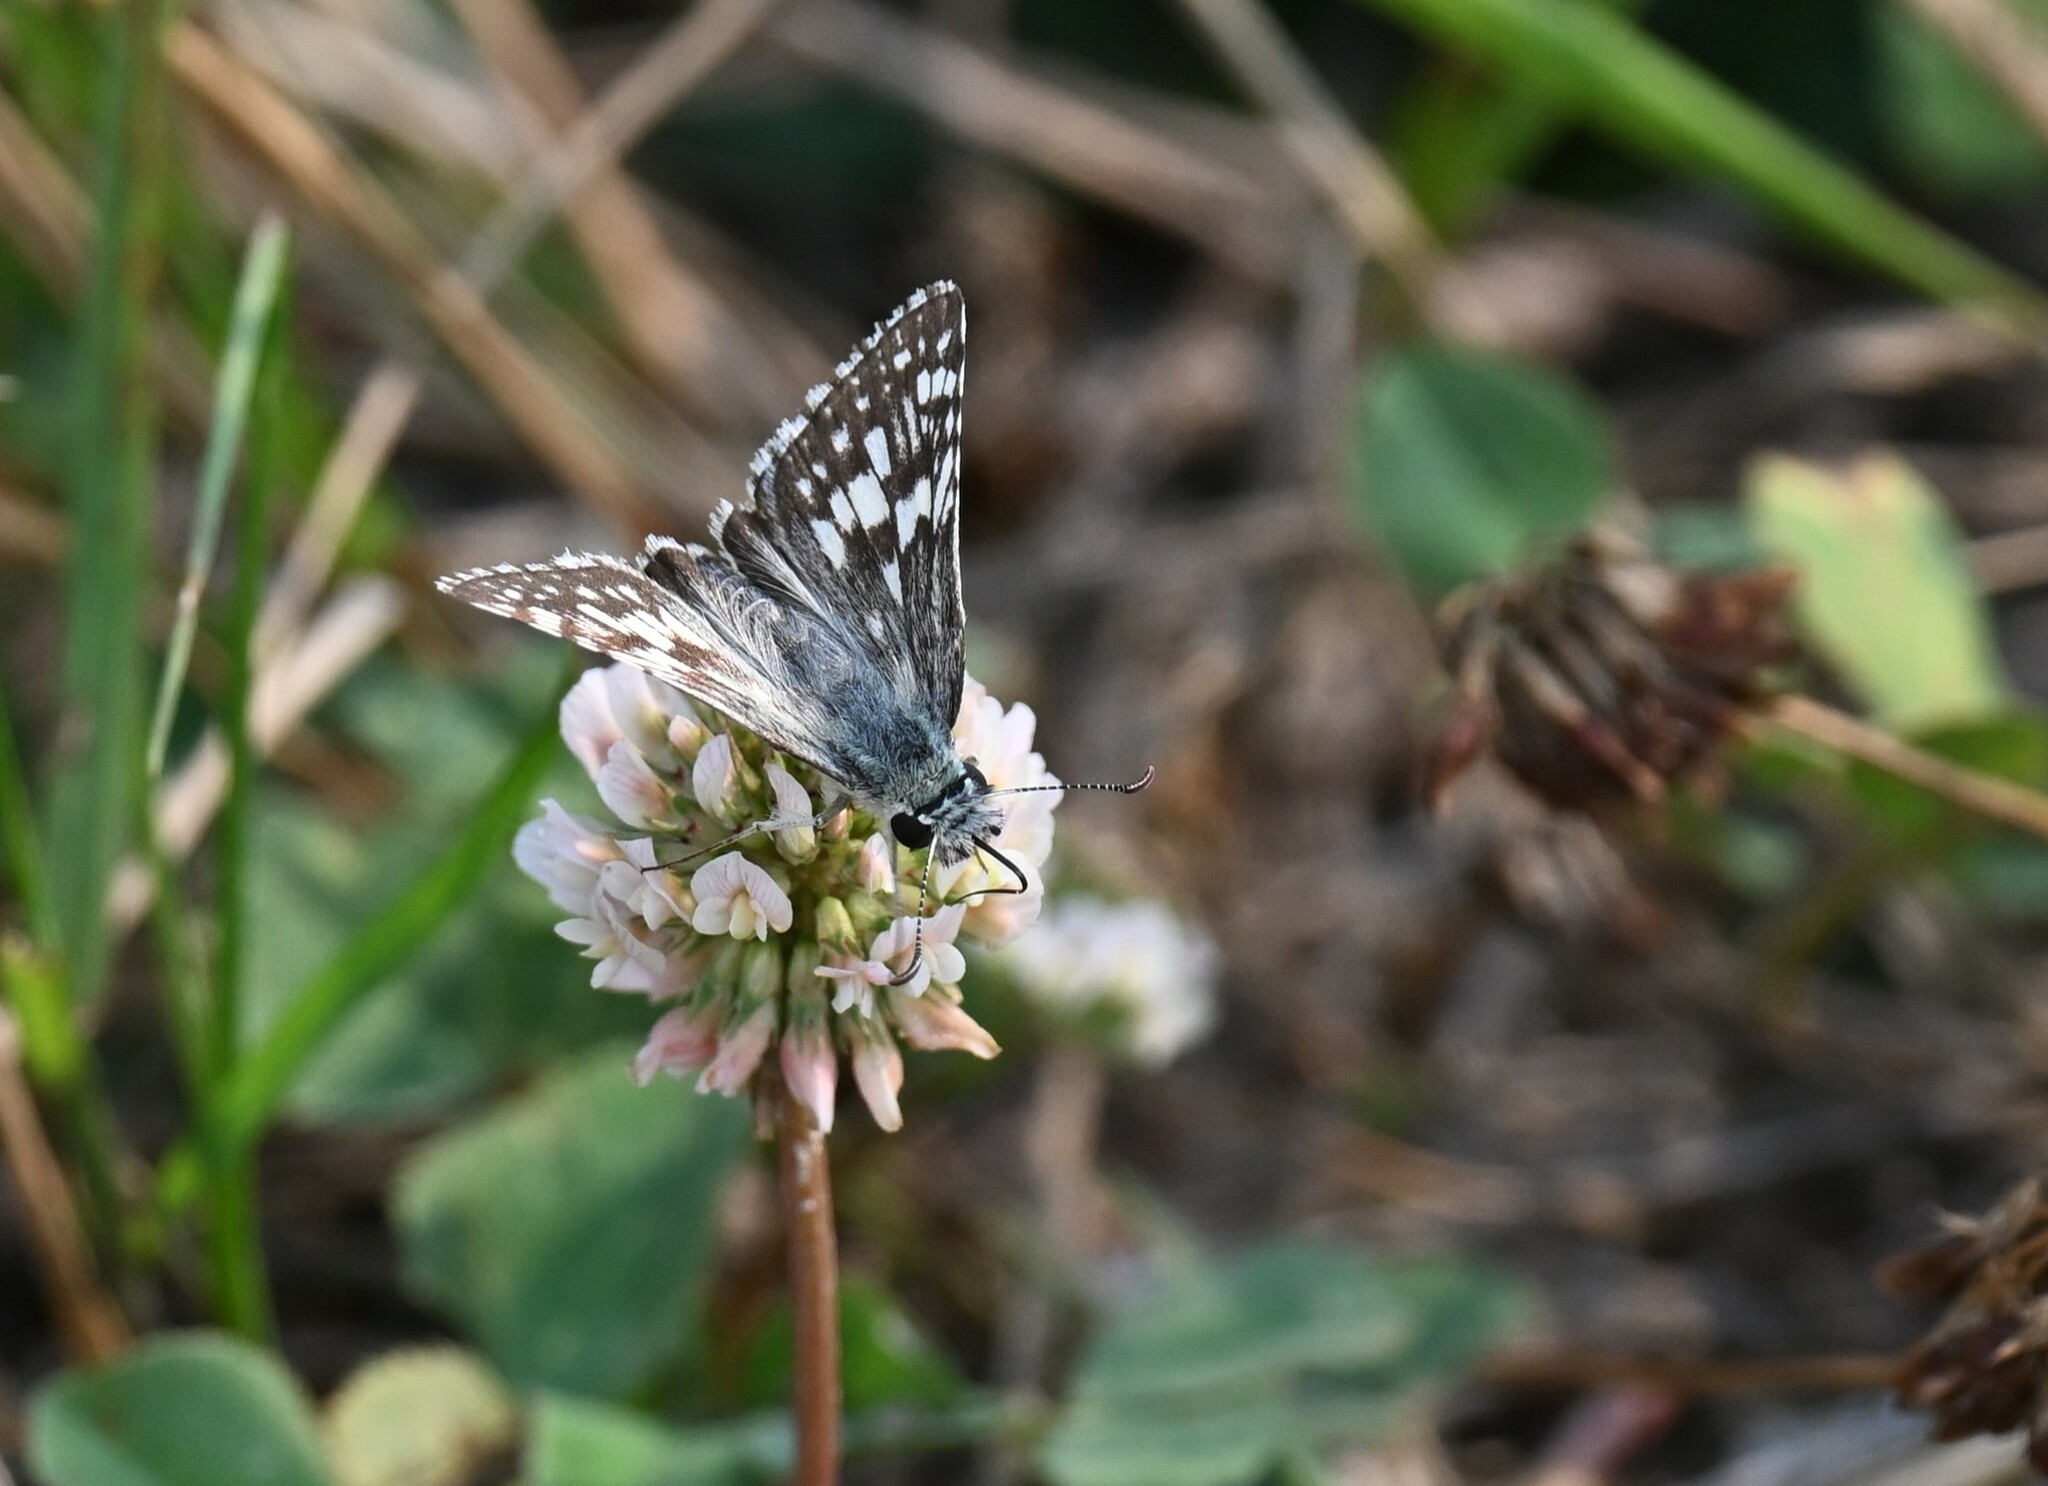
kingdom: Animalia
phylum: Arthropoda
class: Insecta
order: Lepidoptera
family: Hesperiidae
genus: Burnsius
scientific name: Burnsius communis
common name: Common checkered-skipper
